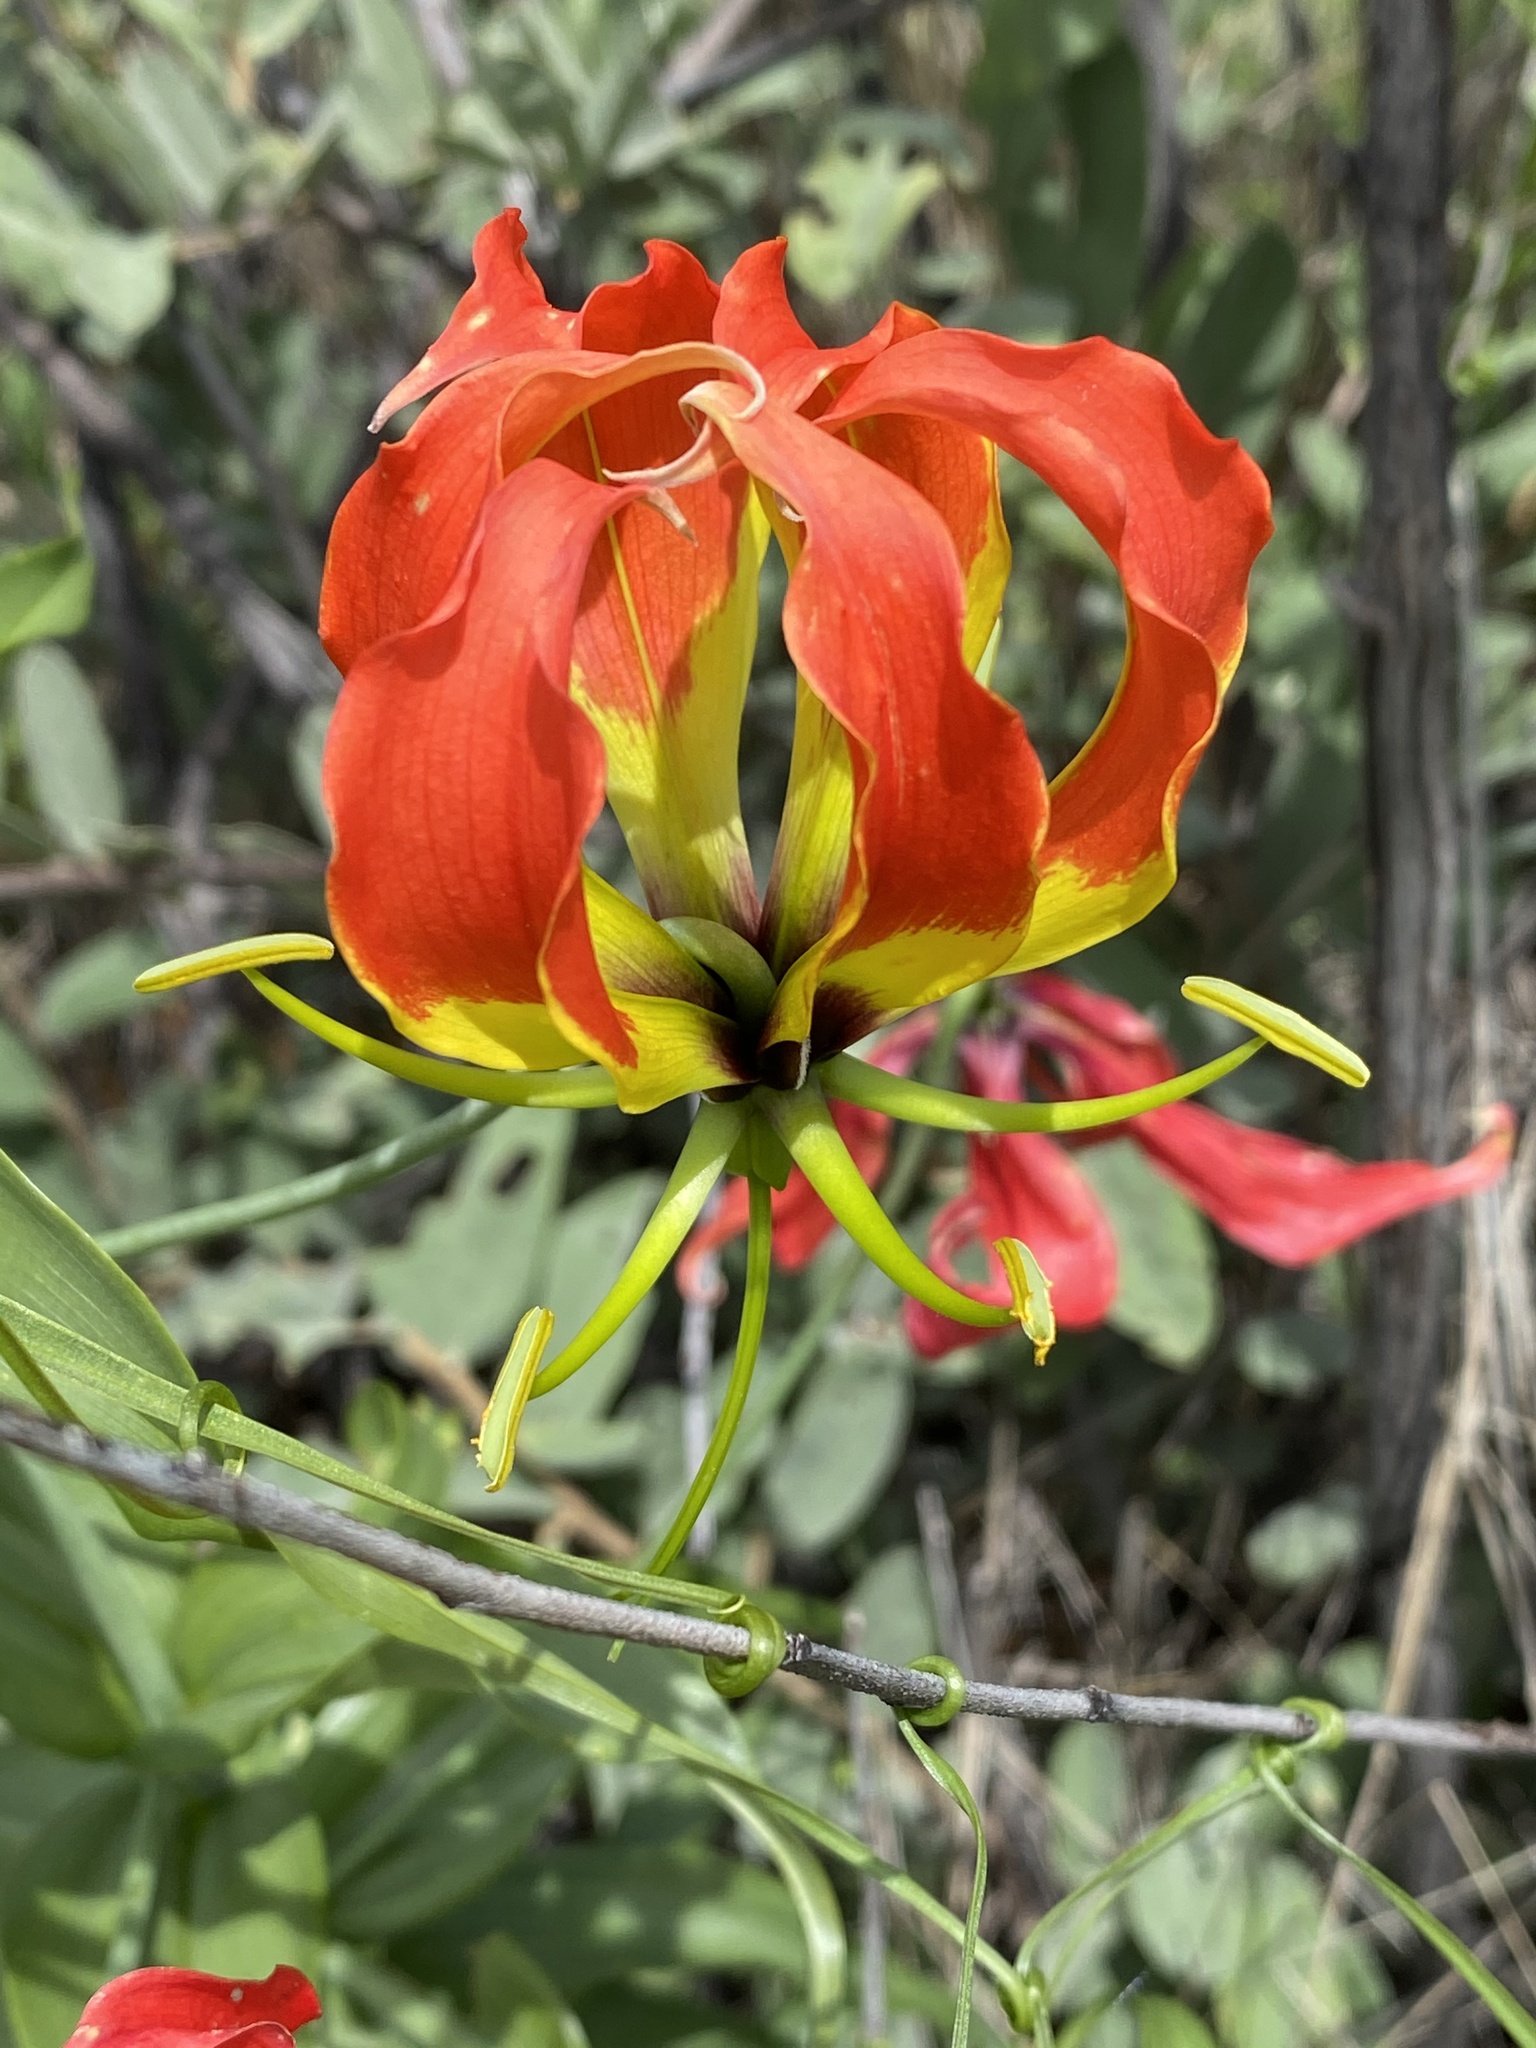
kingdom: Plantae
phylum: Tracheophyta
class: Liliopsida
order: Liliales
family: Colchicaceae
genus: Gloriosa
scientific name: Gloriosa superba
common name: Flame lily
